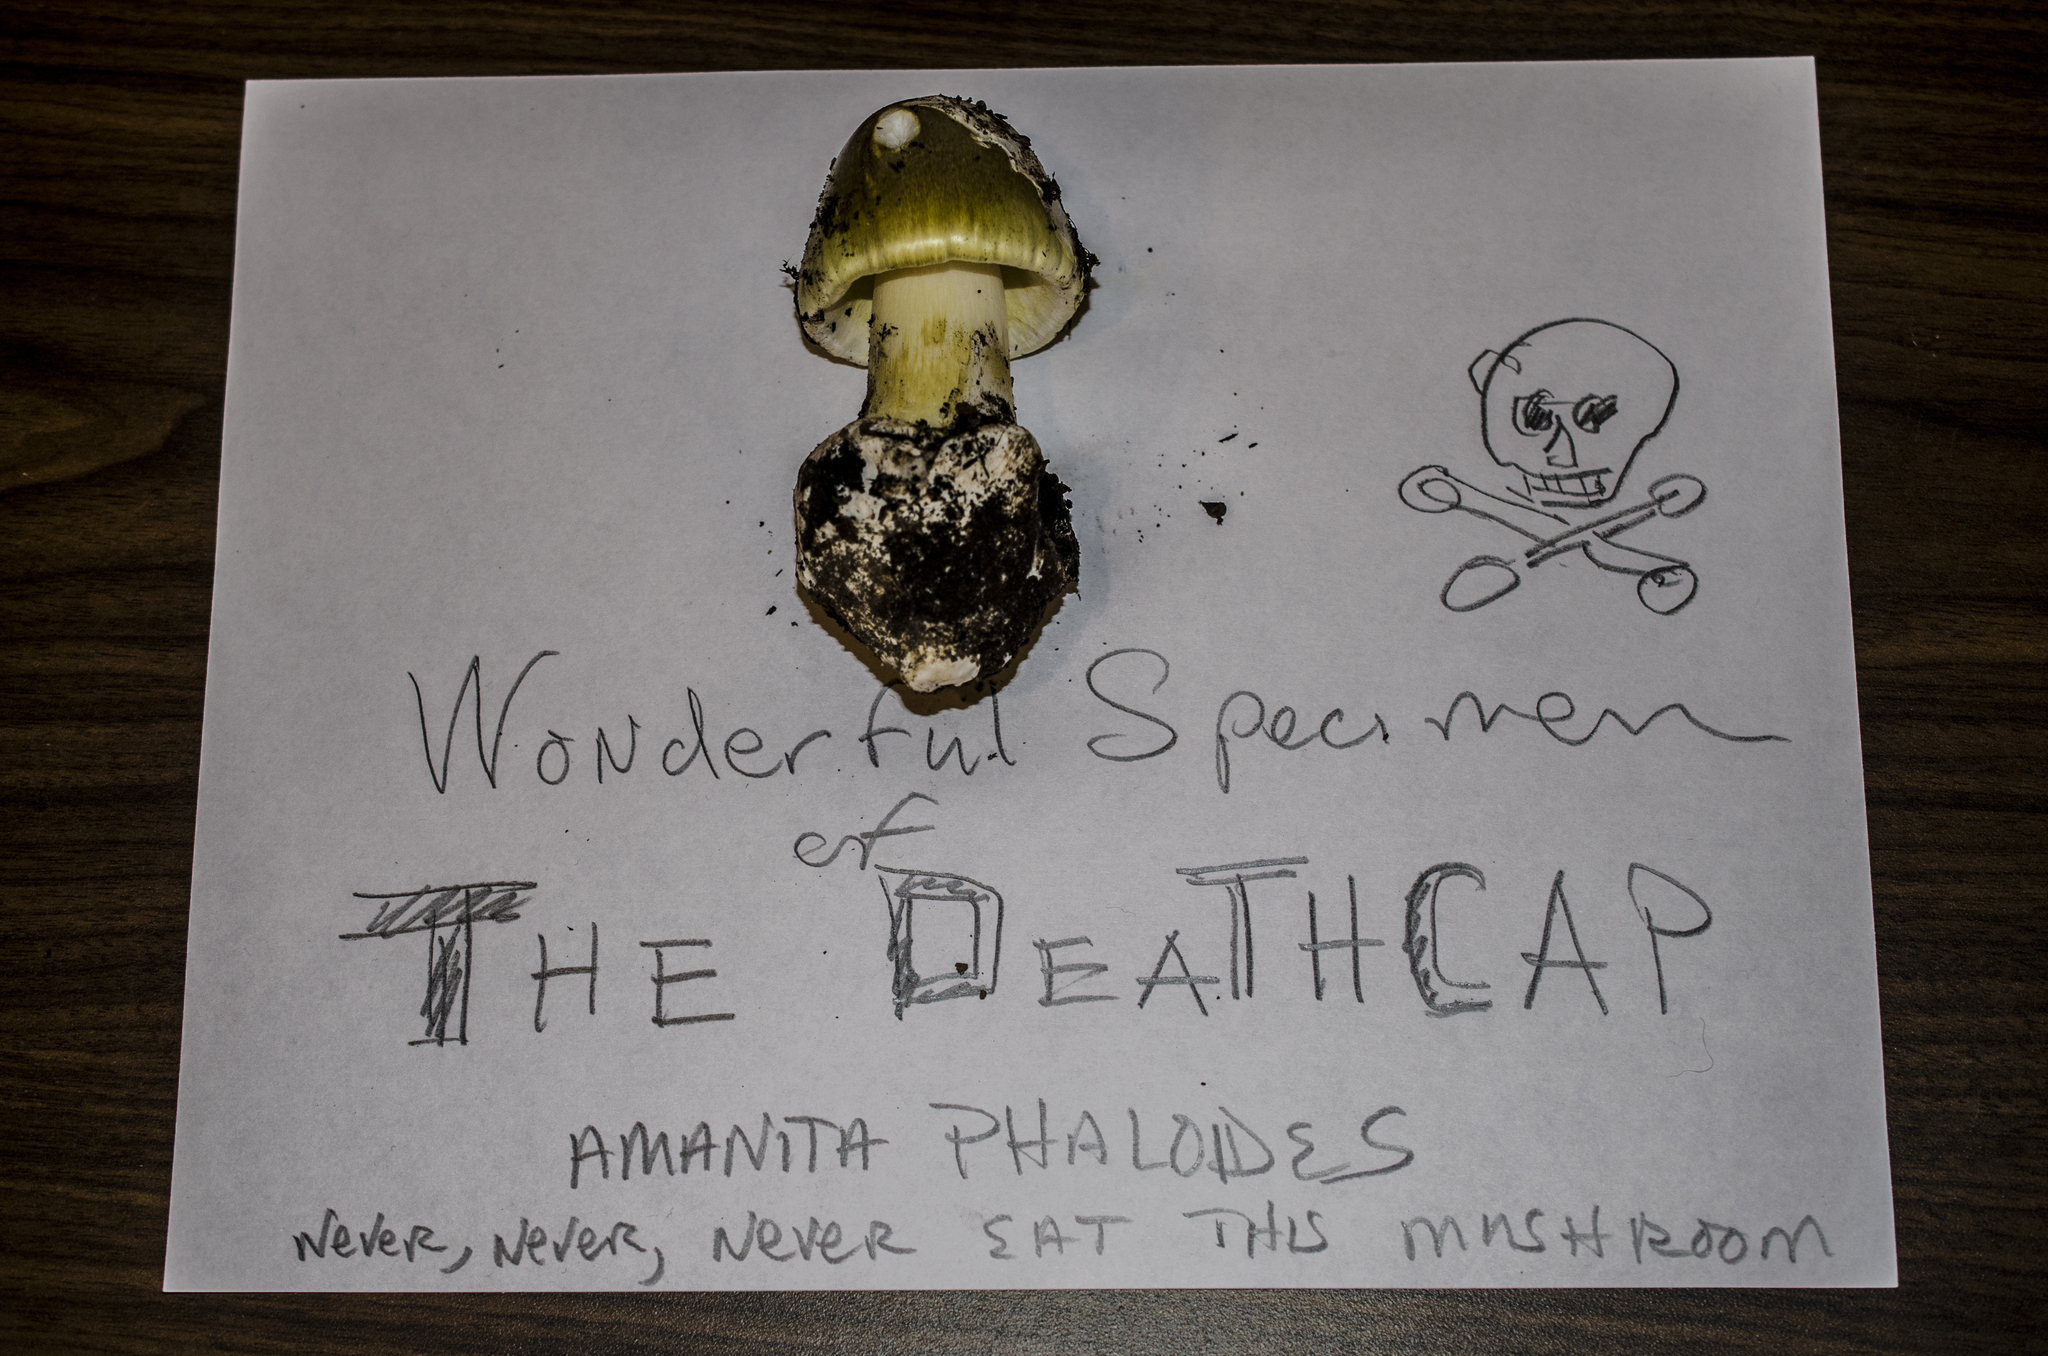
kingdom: Fungi
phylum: Basidiomycota
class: Agaricomycetes
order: Agaricales
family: Amanitaceae
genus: Amanita
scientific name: Amanita phalloides
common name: Death cap
